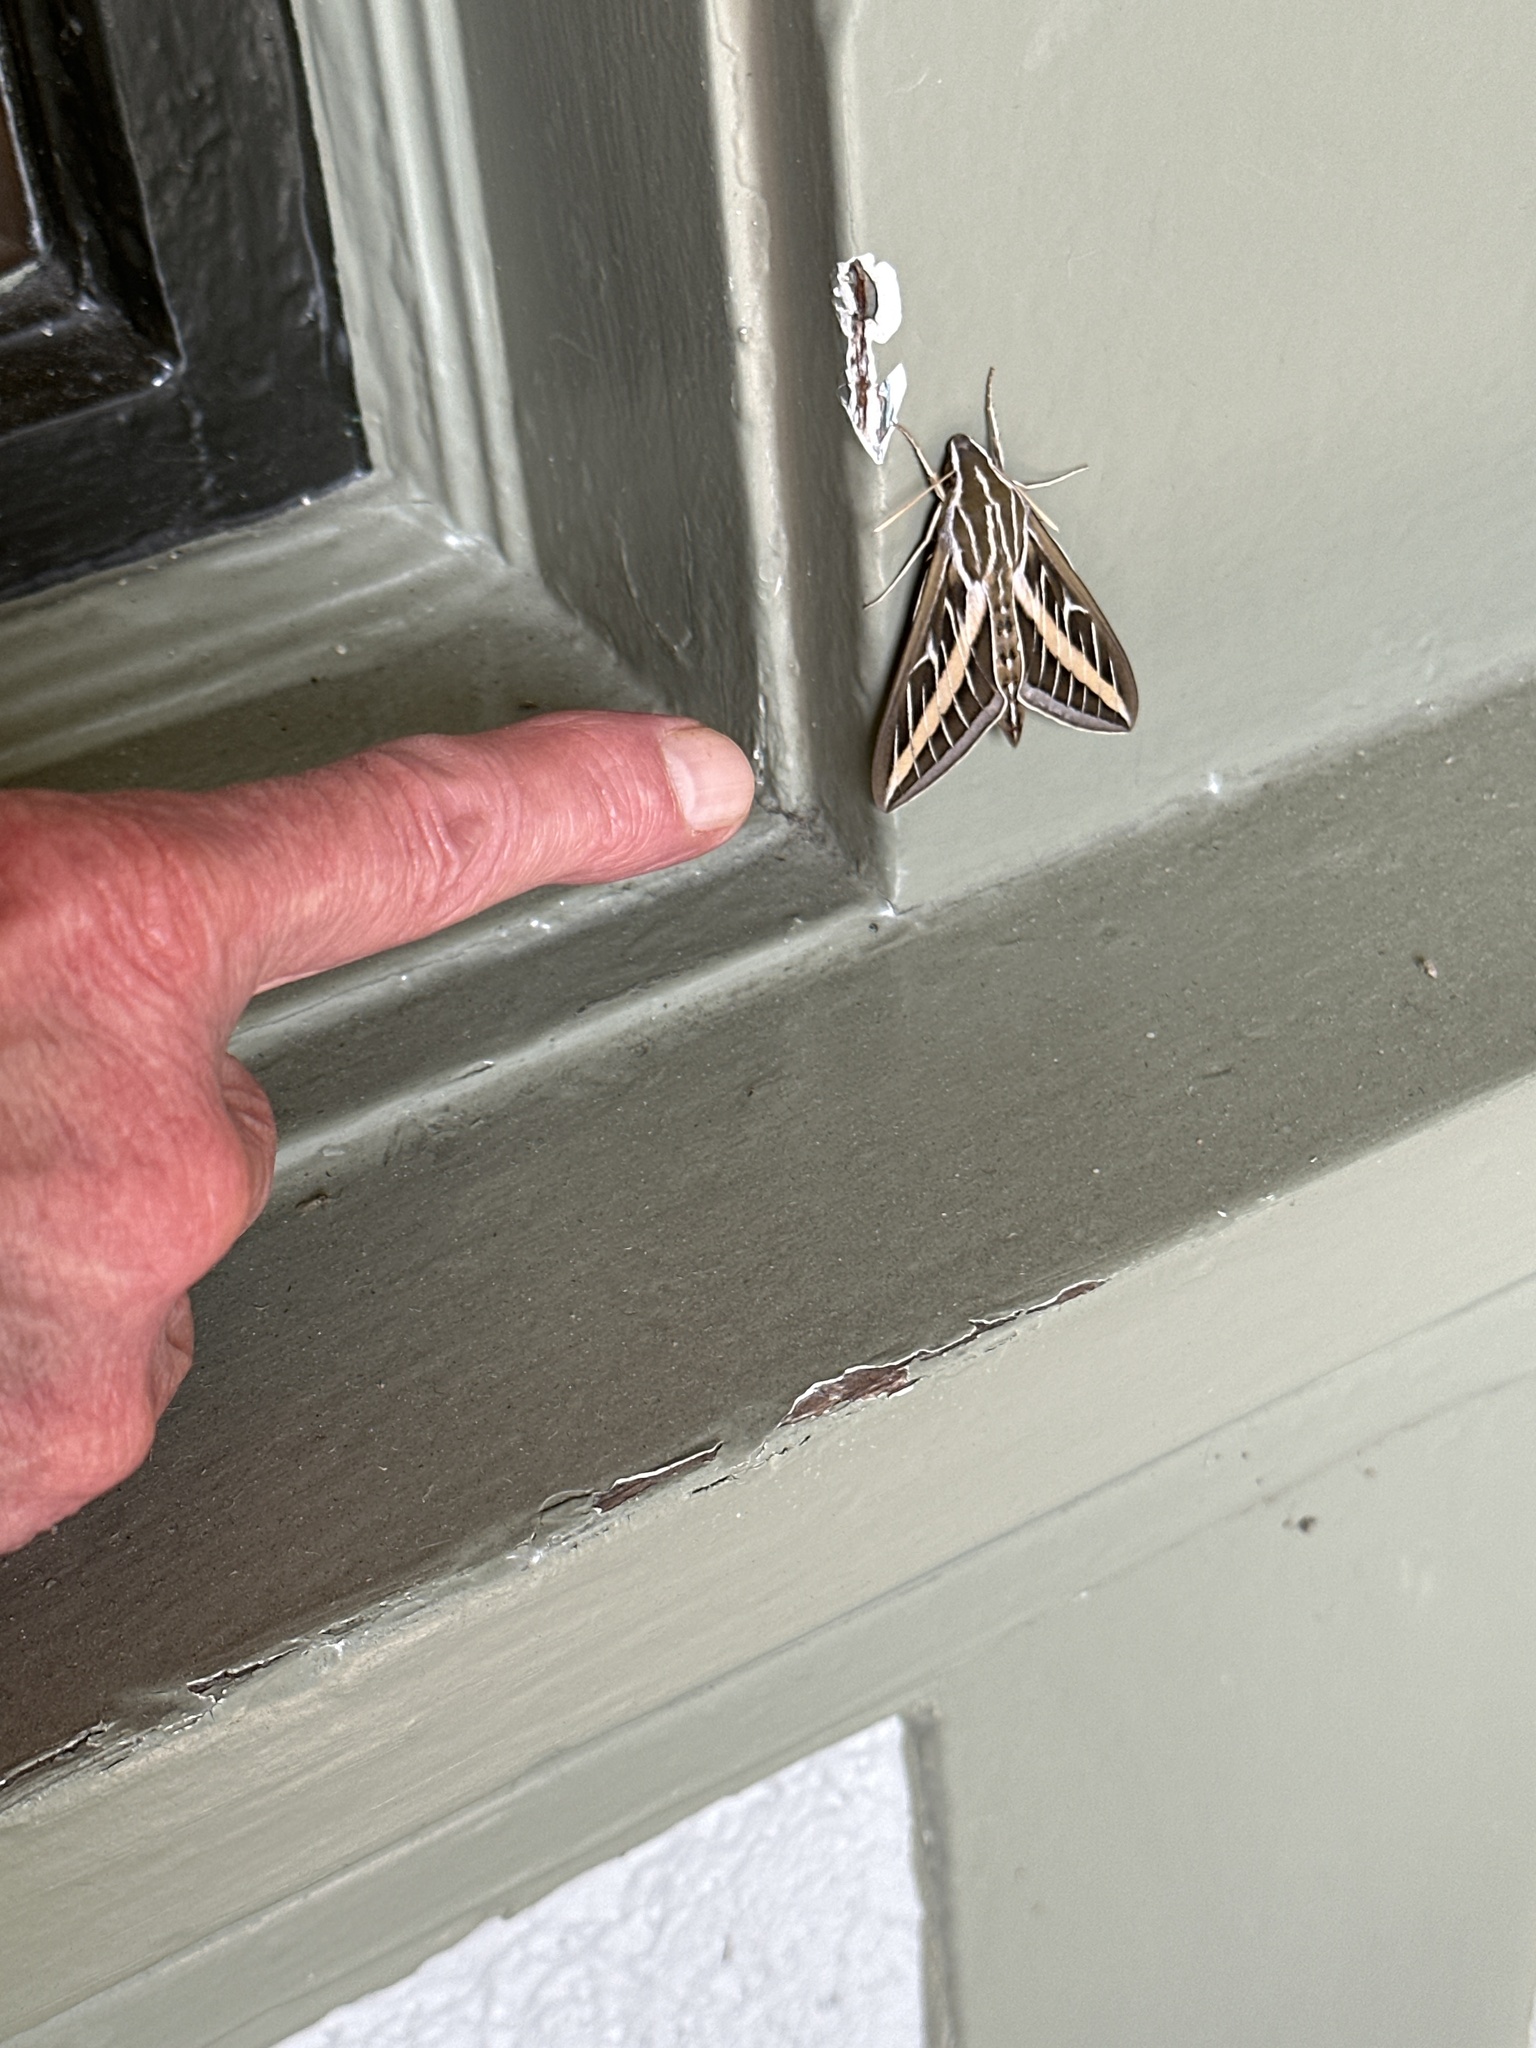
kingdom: Animalia
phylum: Arthropoda
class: Insecta
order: Lepidoptera
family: Sphingidae
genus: Hyles
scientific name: Hyles lineata
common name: White-lined sphinx
